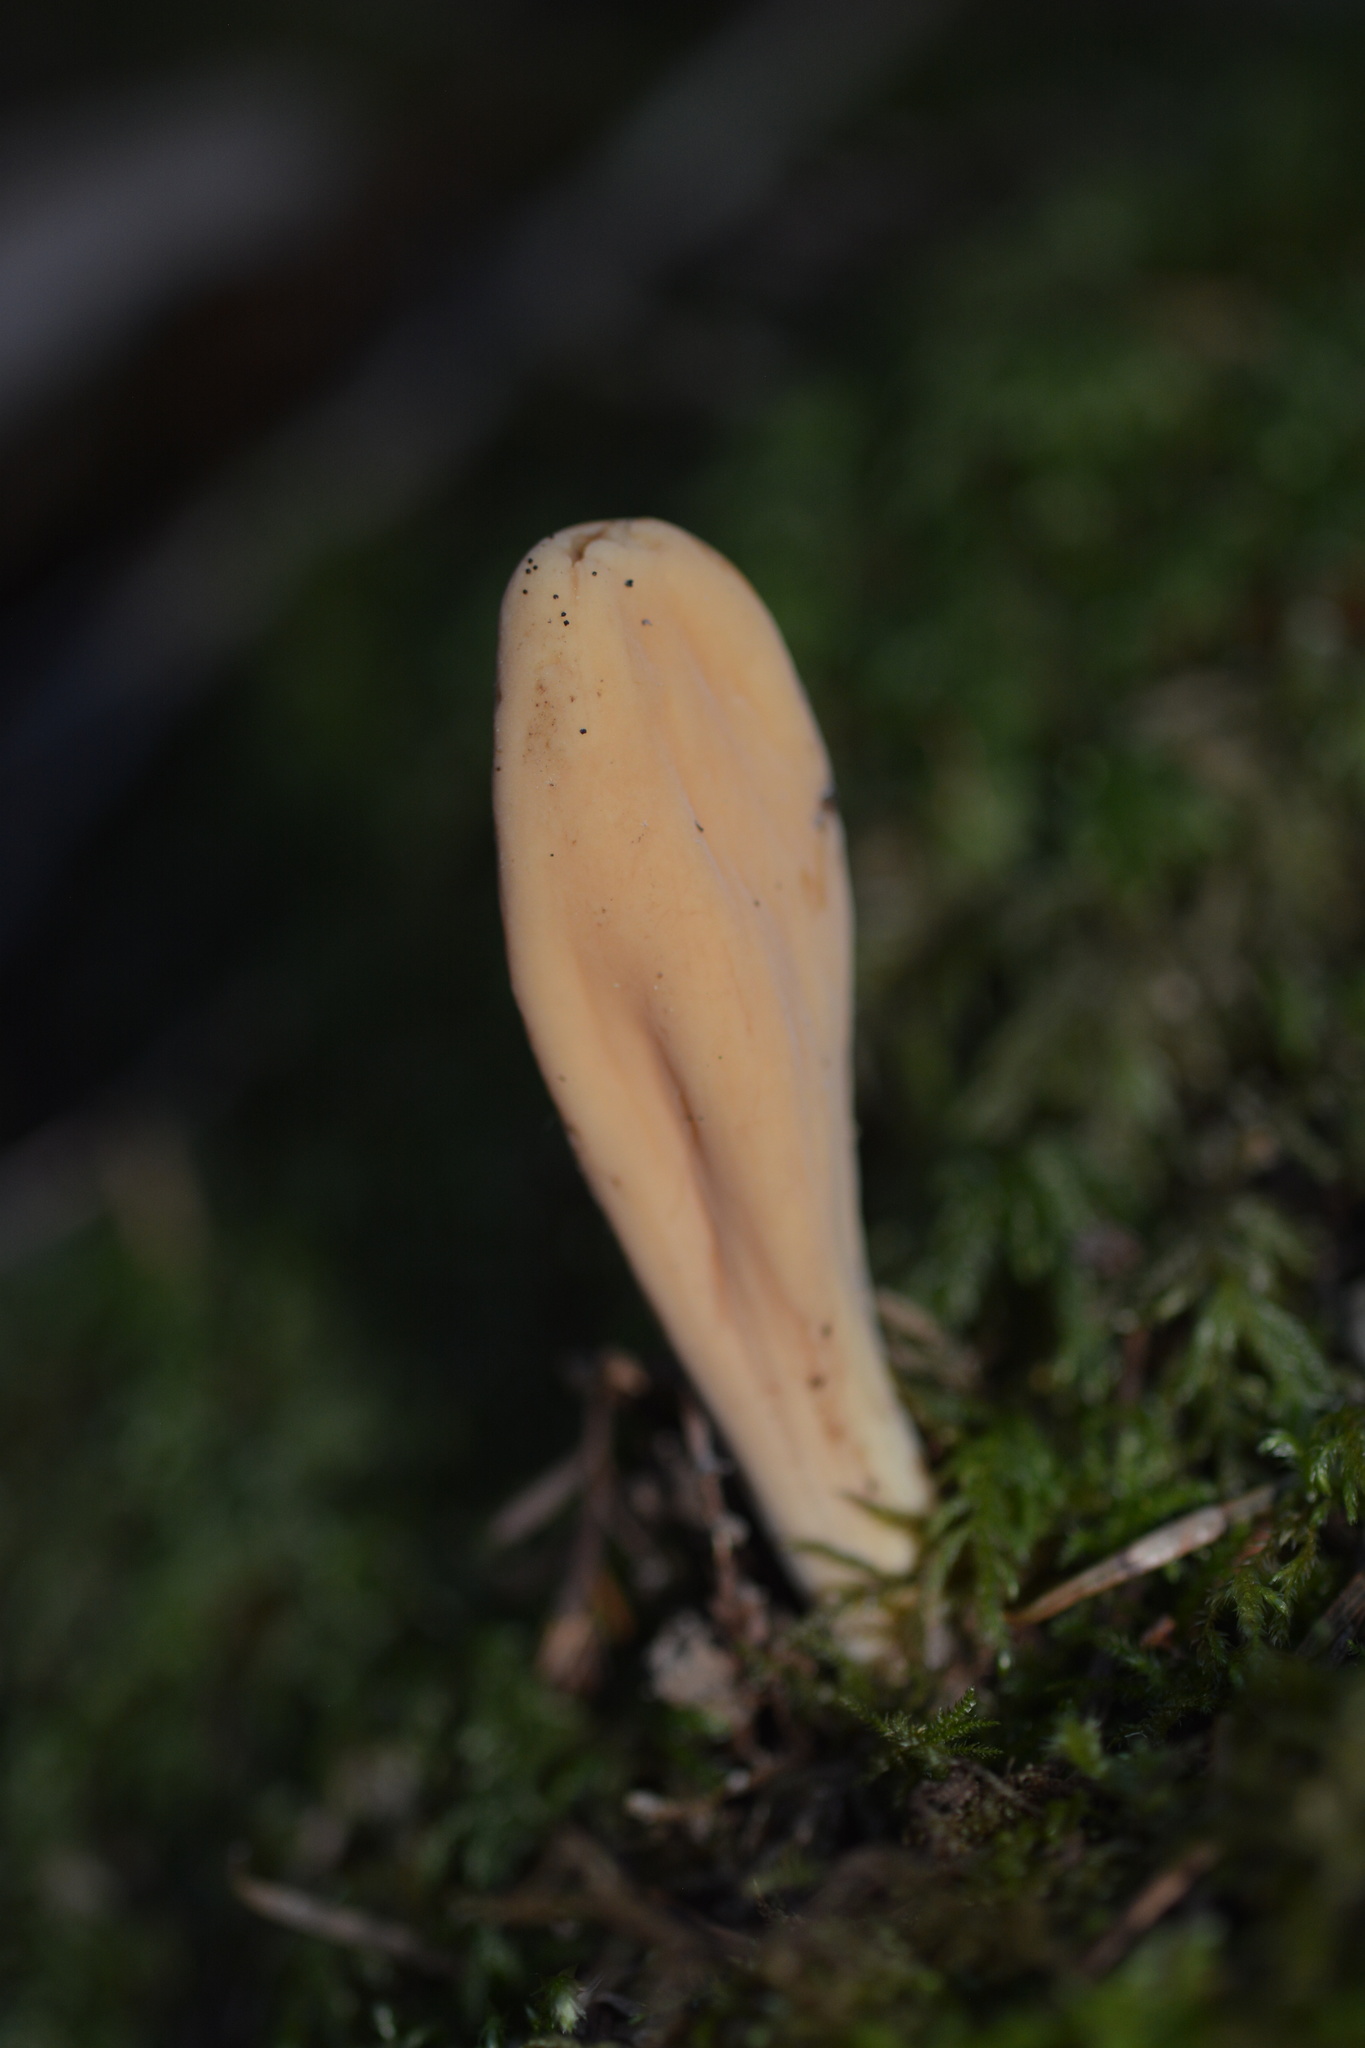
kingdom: Fungi
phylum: Basidiomycota
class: Agaricomycetes
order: Gomphales
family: Clavariadelphaceae
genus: Clavariadelphus
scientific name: Clavariadelphus occidentalis
